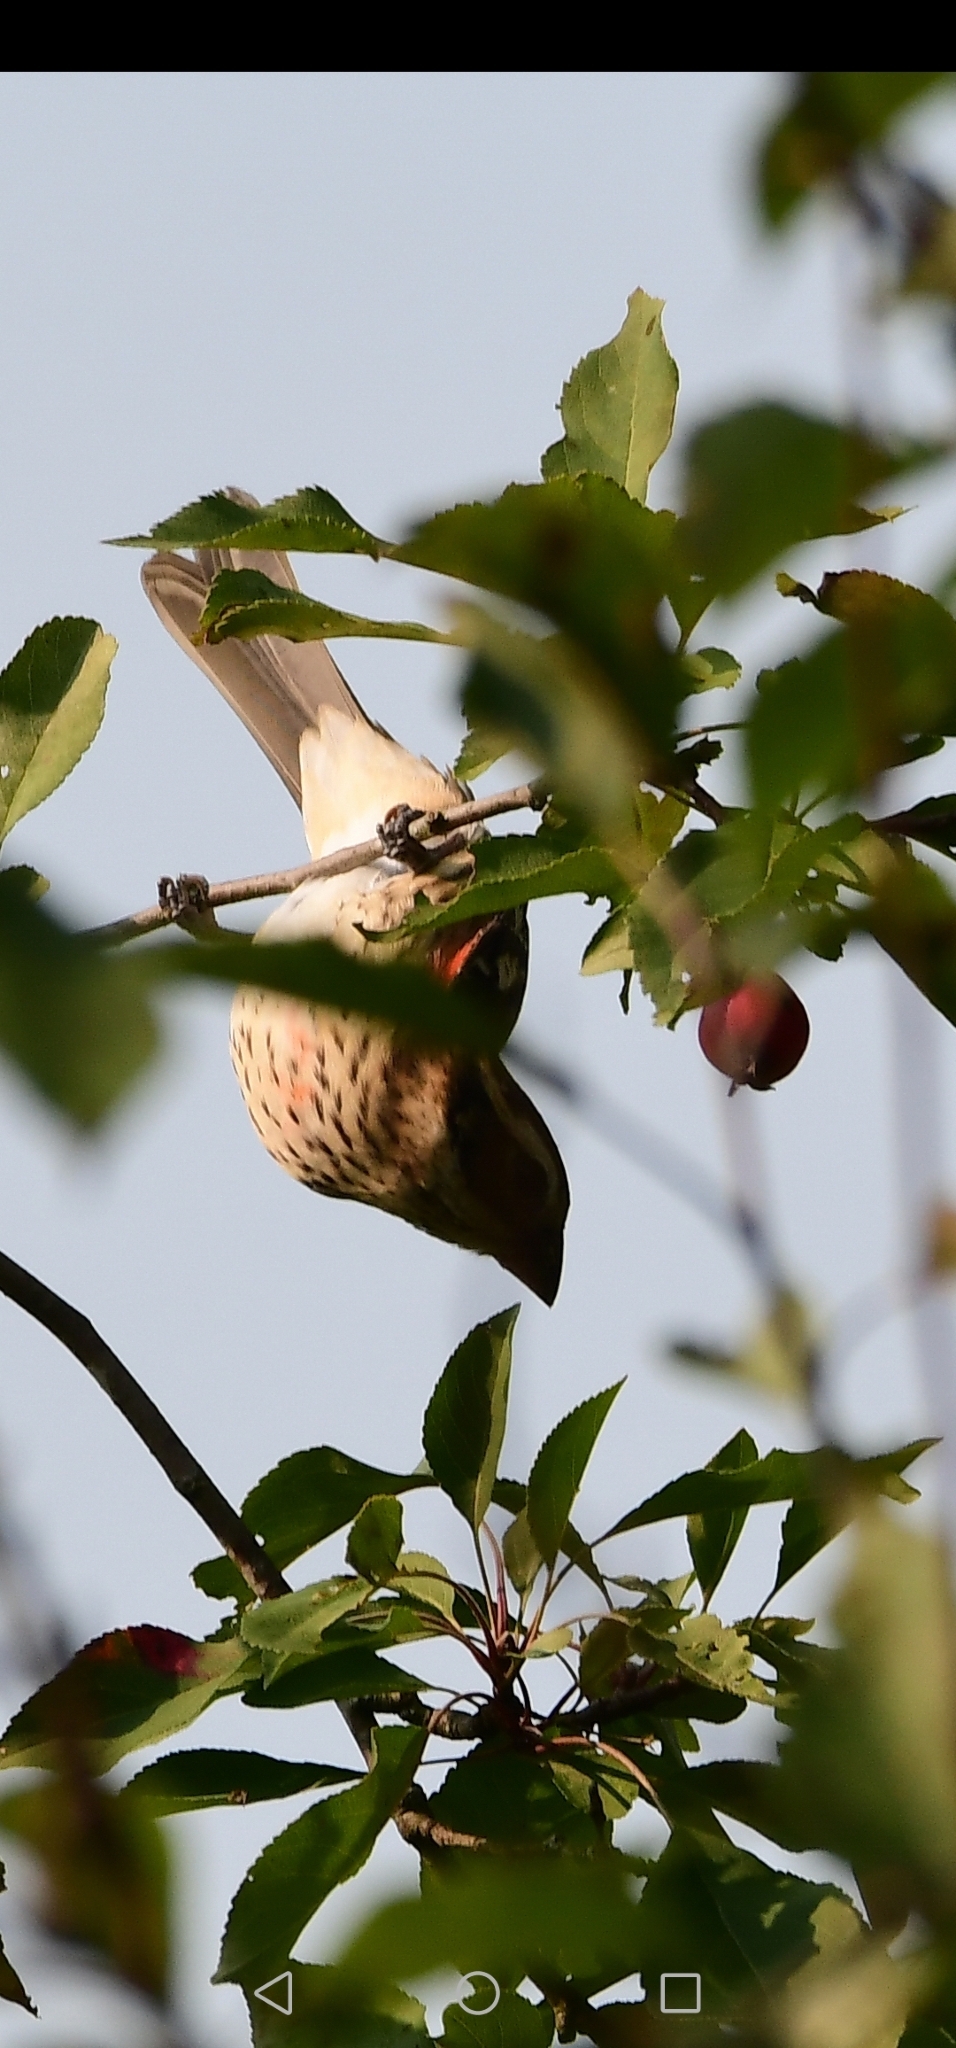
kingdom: Animalia
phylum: Chordata
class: Aves
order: Passeriformes
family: Cardinalidae
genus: Pheucticus
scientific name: Pheucticus ludovicianus
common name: Rose-breasted grosbeak
